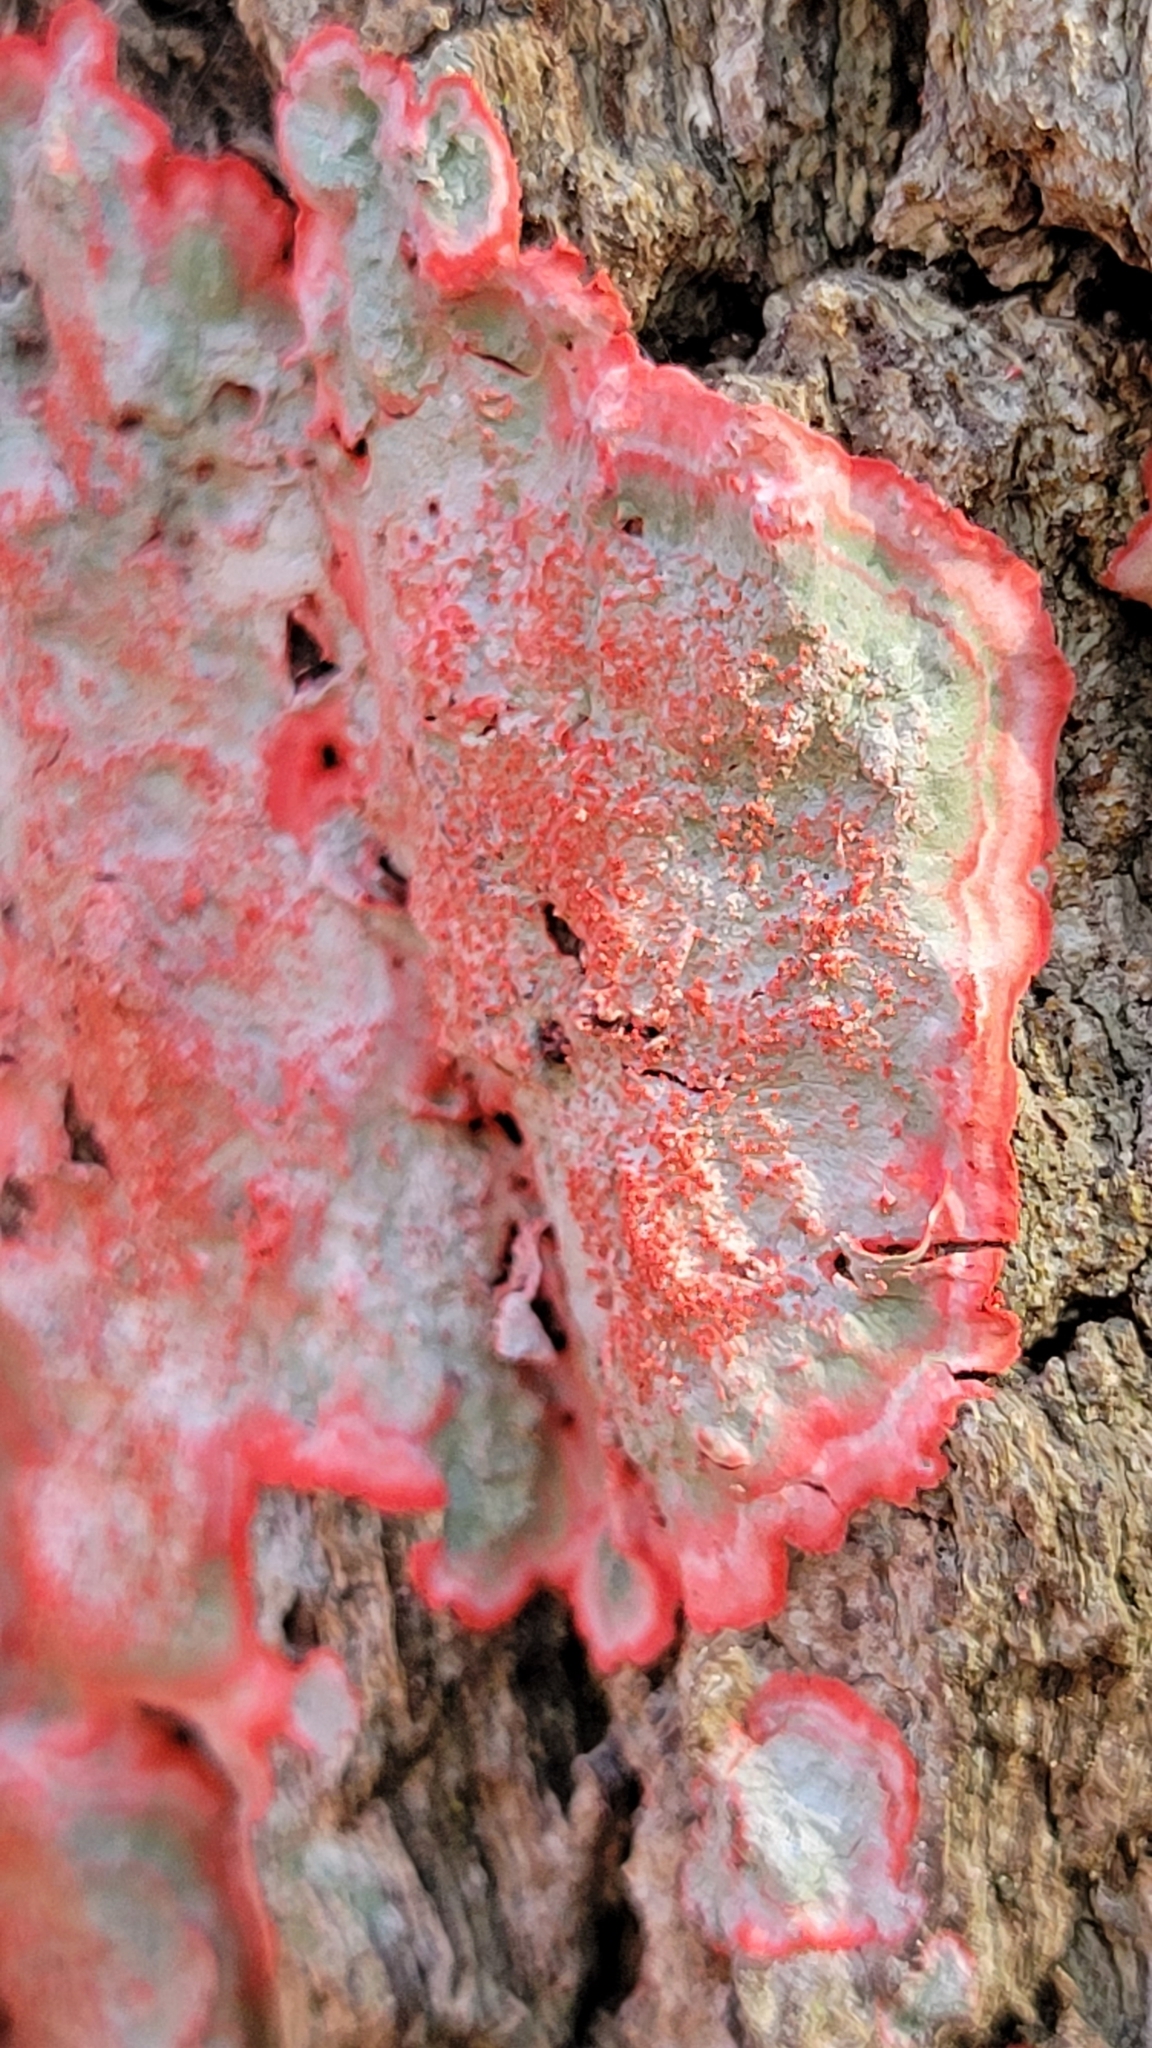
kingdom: Fungi
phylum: Ascomycota
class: Arthoniomycetes
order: Arthoniales
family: Arthoniaceae
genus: Herpothallon
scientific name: Herpothallon rubrocinctum
